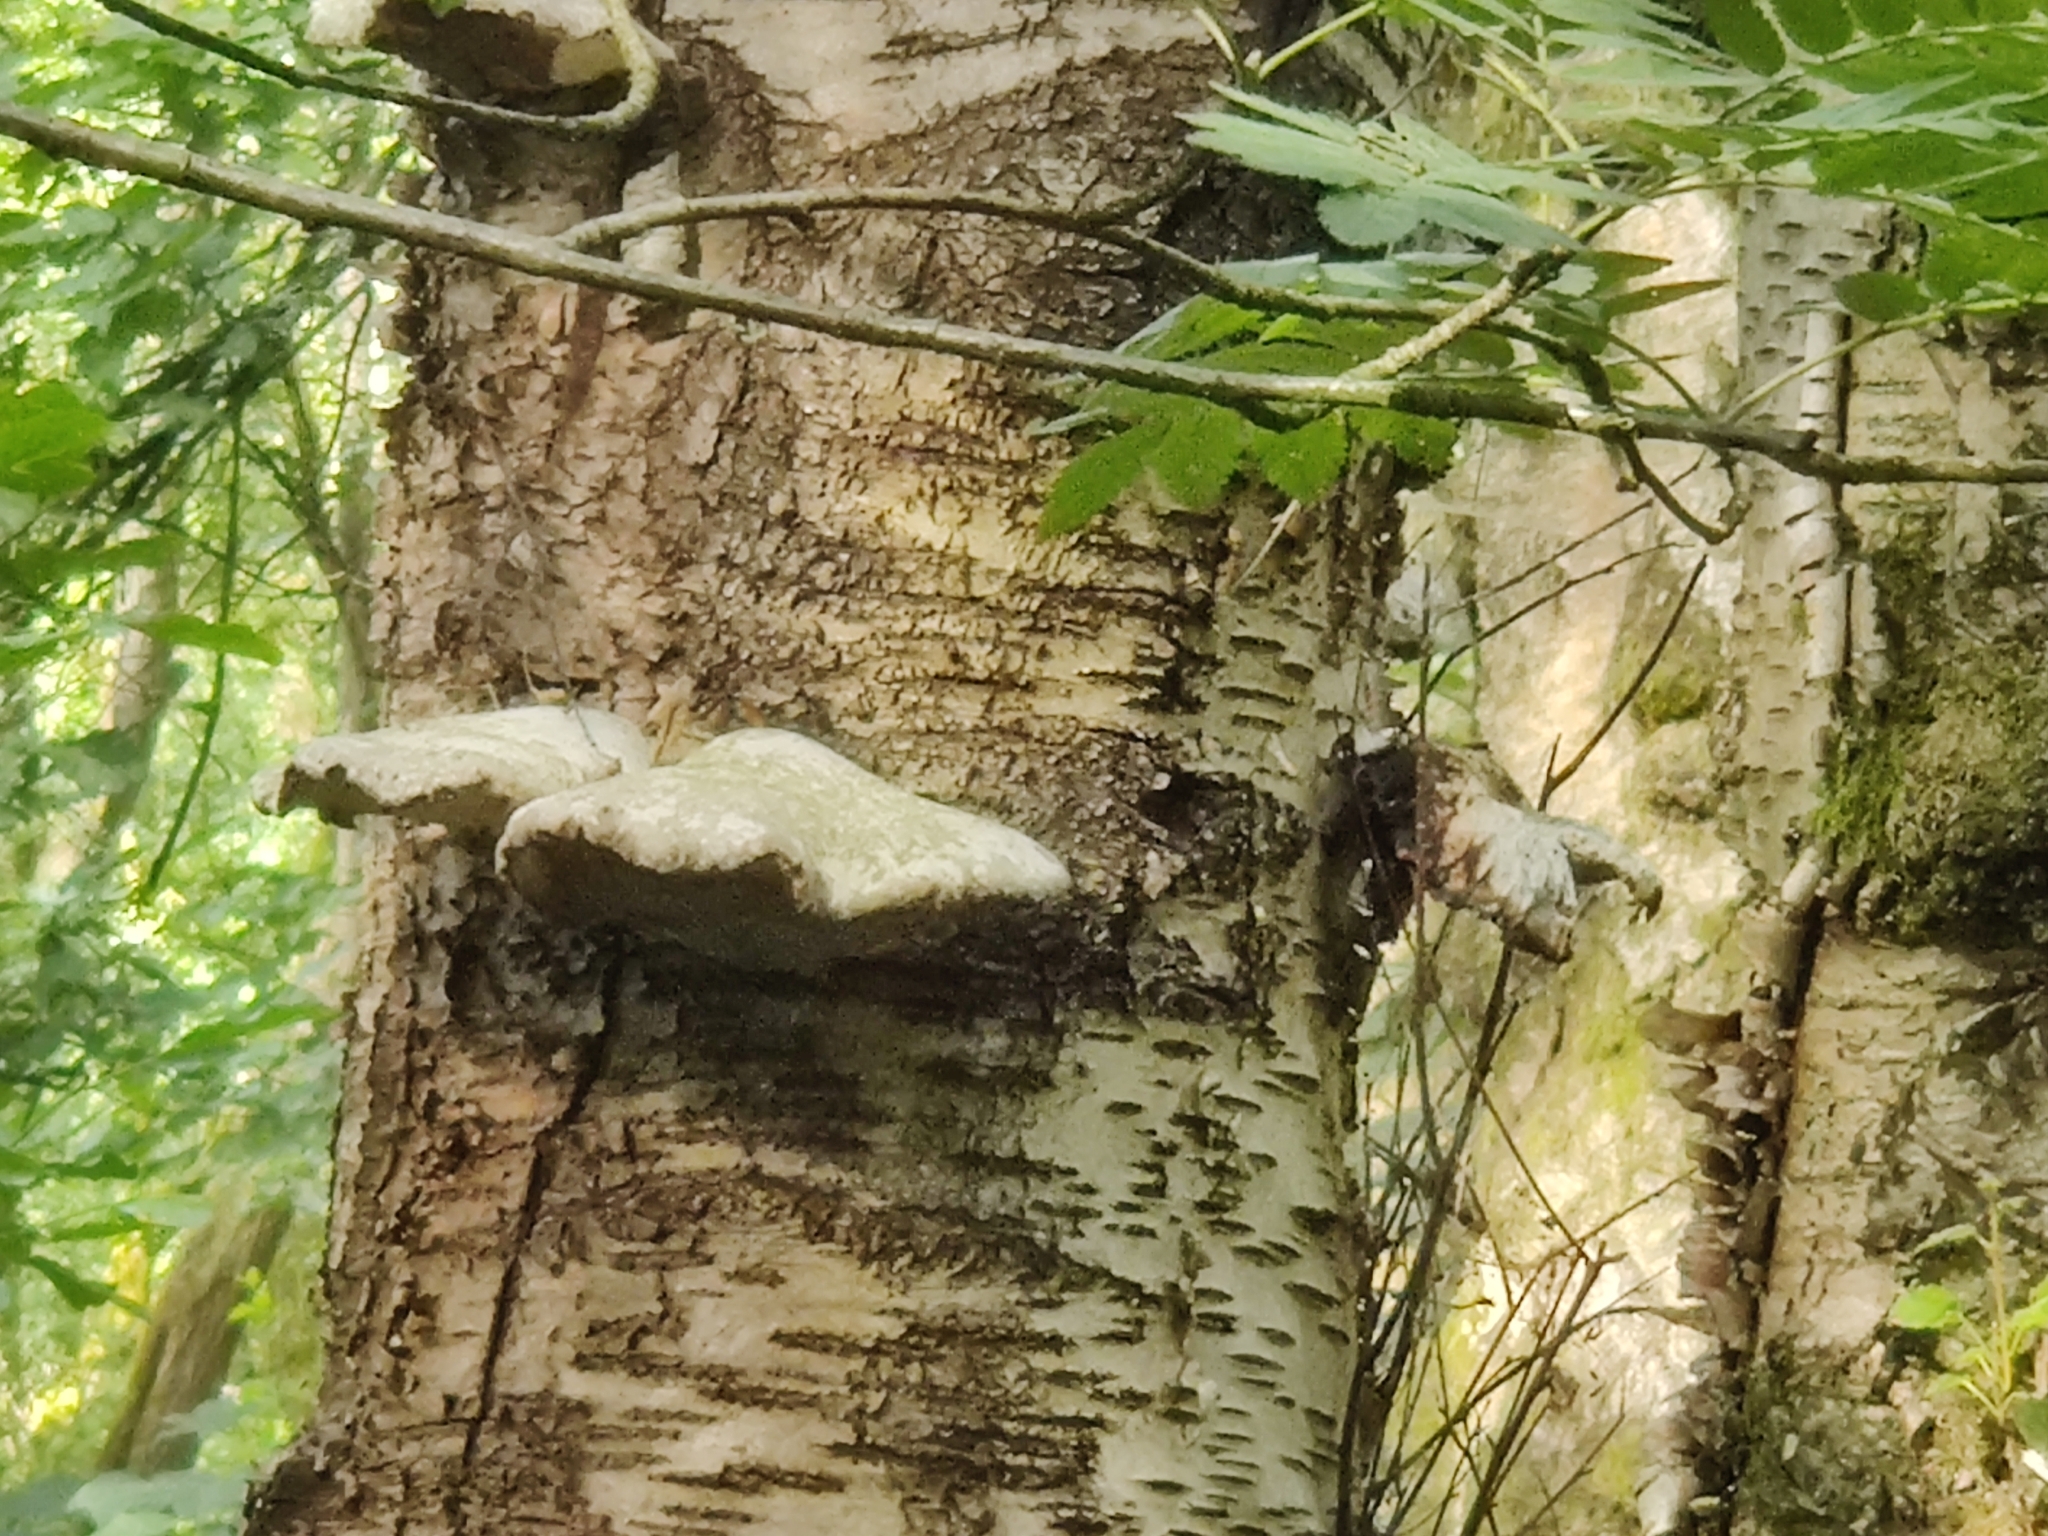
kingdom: Fungi
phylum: Basidiomycota
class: Agaricomycetes
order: Polyporales
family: Fomitopsidaceae
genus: Fomitopsis
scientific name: Fomitopsis betulina
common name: Birch polypore
